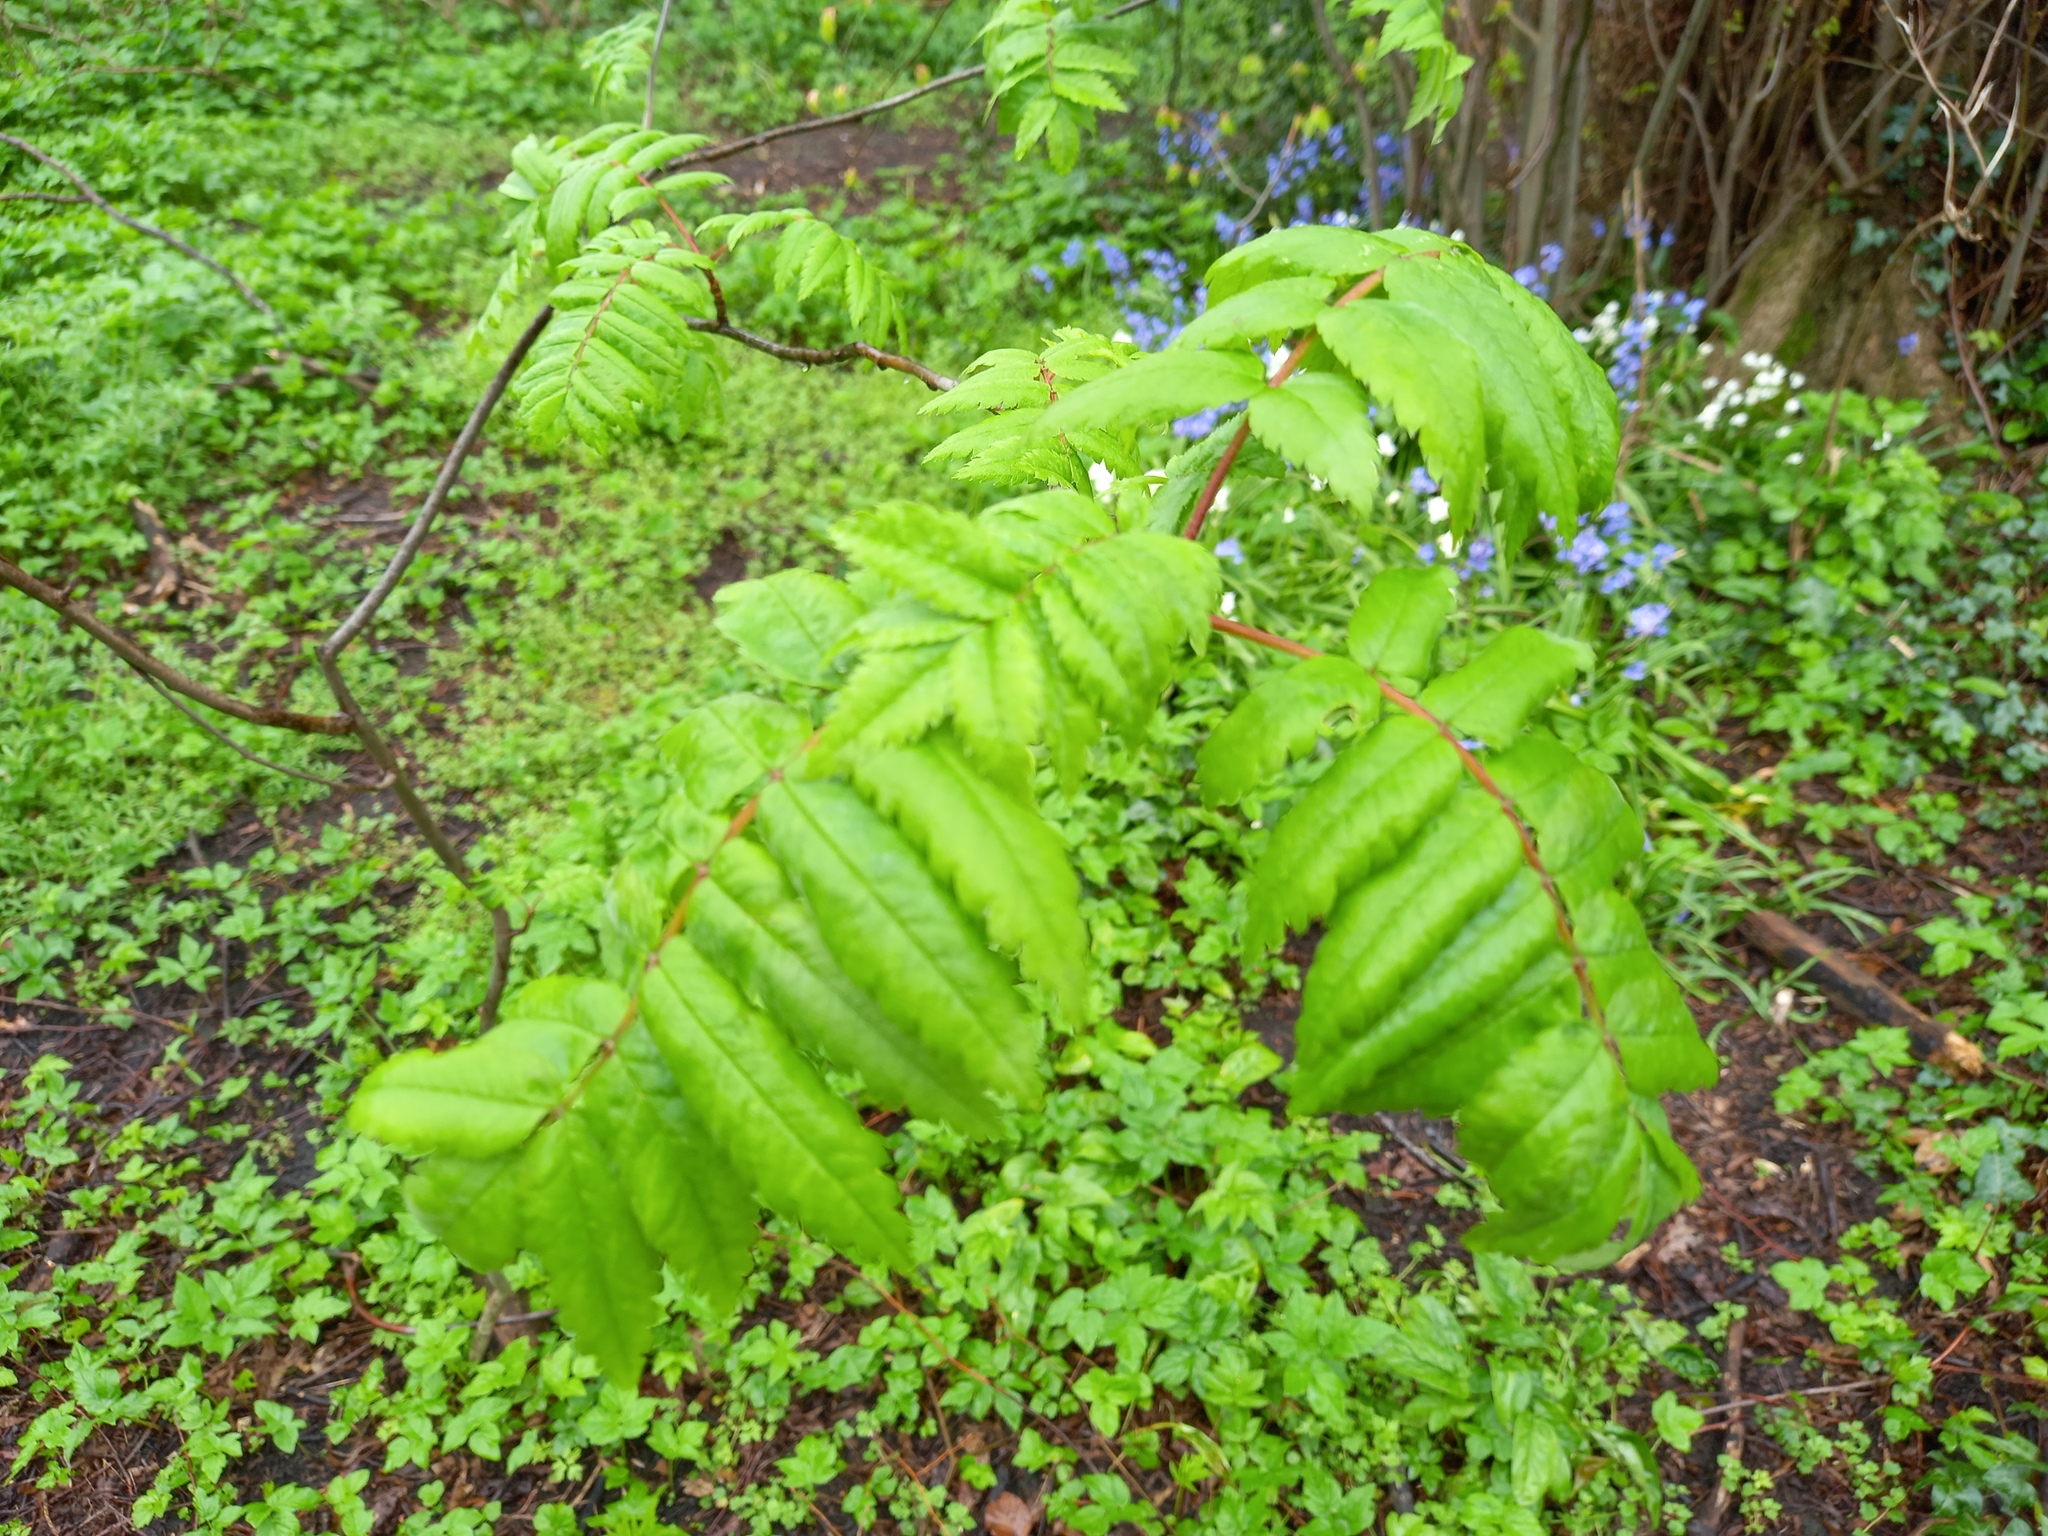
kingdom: Plantae
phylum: Tracheophyta
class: Magnoliopsida
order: Rosales
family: Rosaceae
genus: Sorbus
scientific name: Sorbus aucuparia
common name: Rowan
